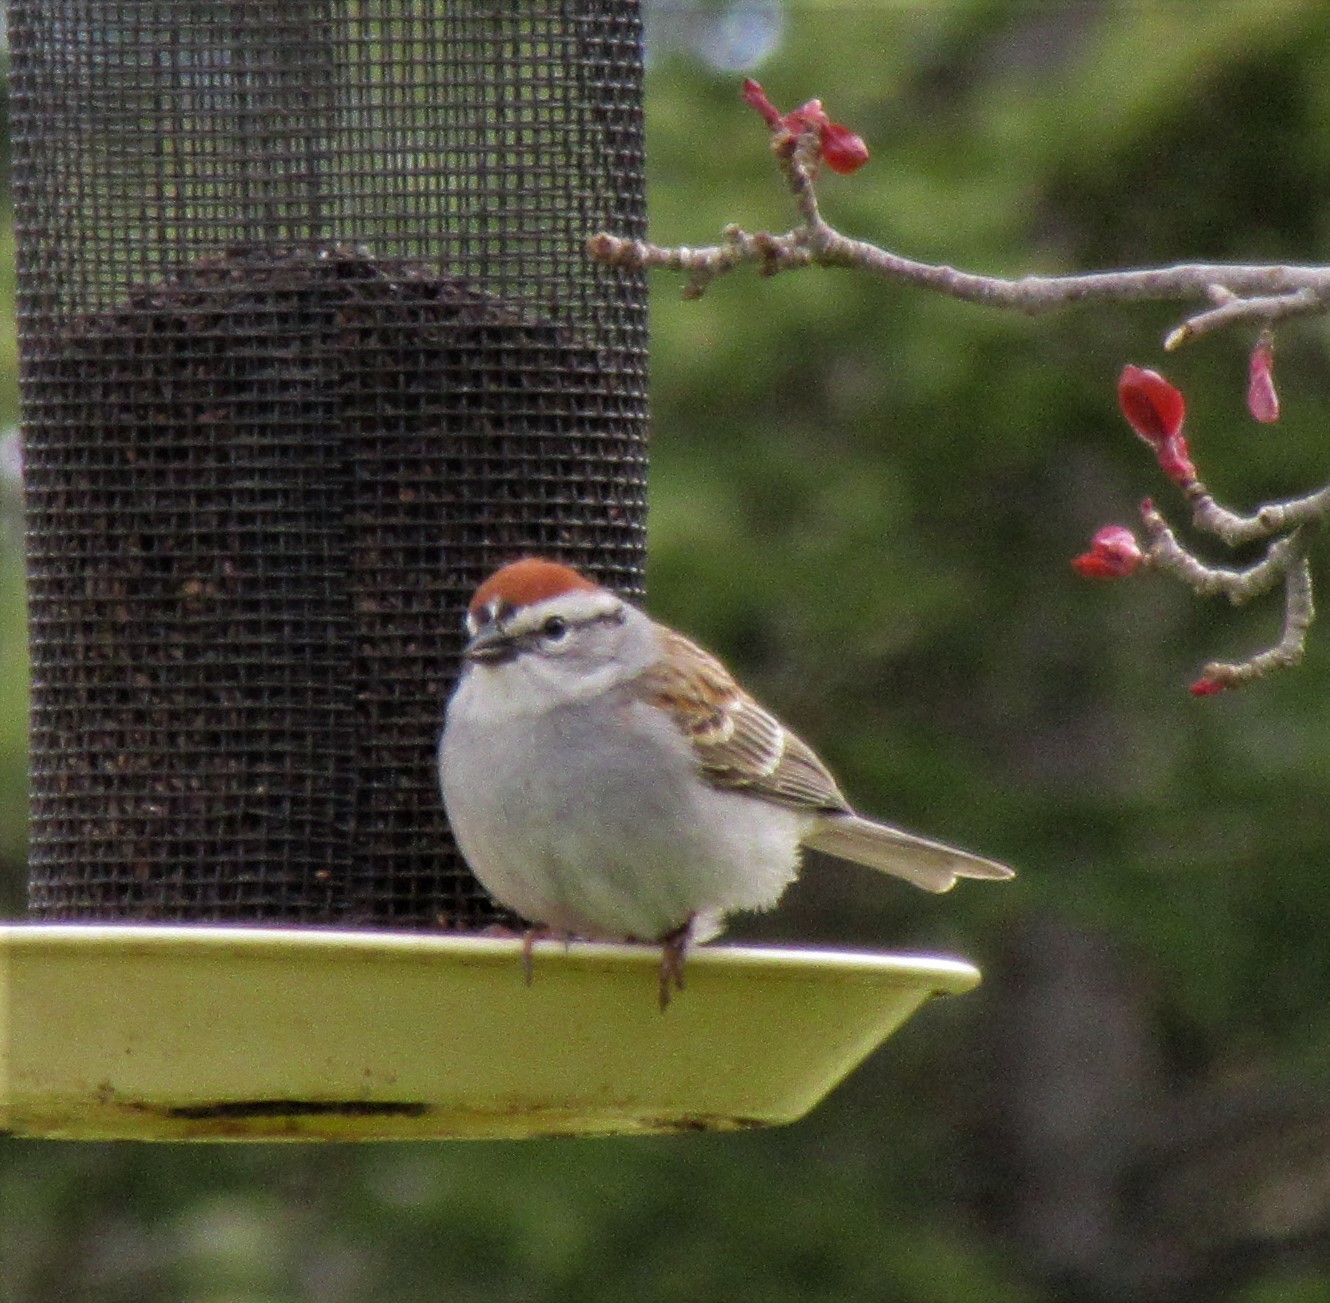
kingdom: Animalia
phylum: Chordata
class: Aves
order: Passeriformes
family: Passerellidae
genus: Spizella
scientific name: Spizella passerina
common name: Chipping sparrow
